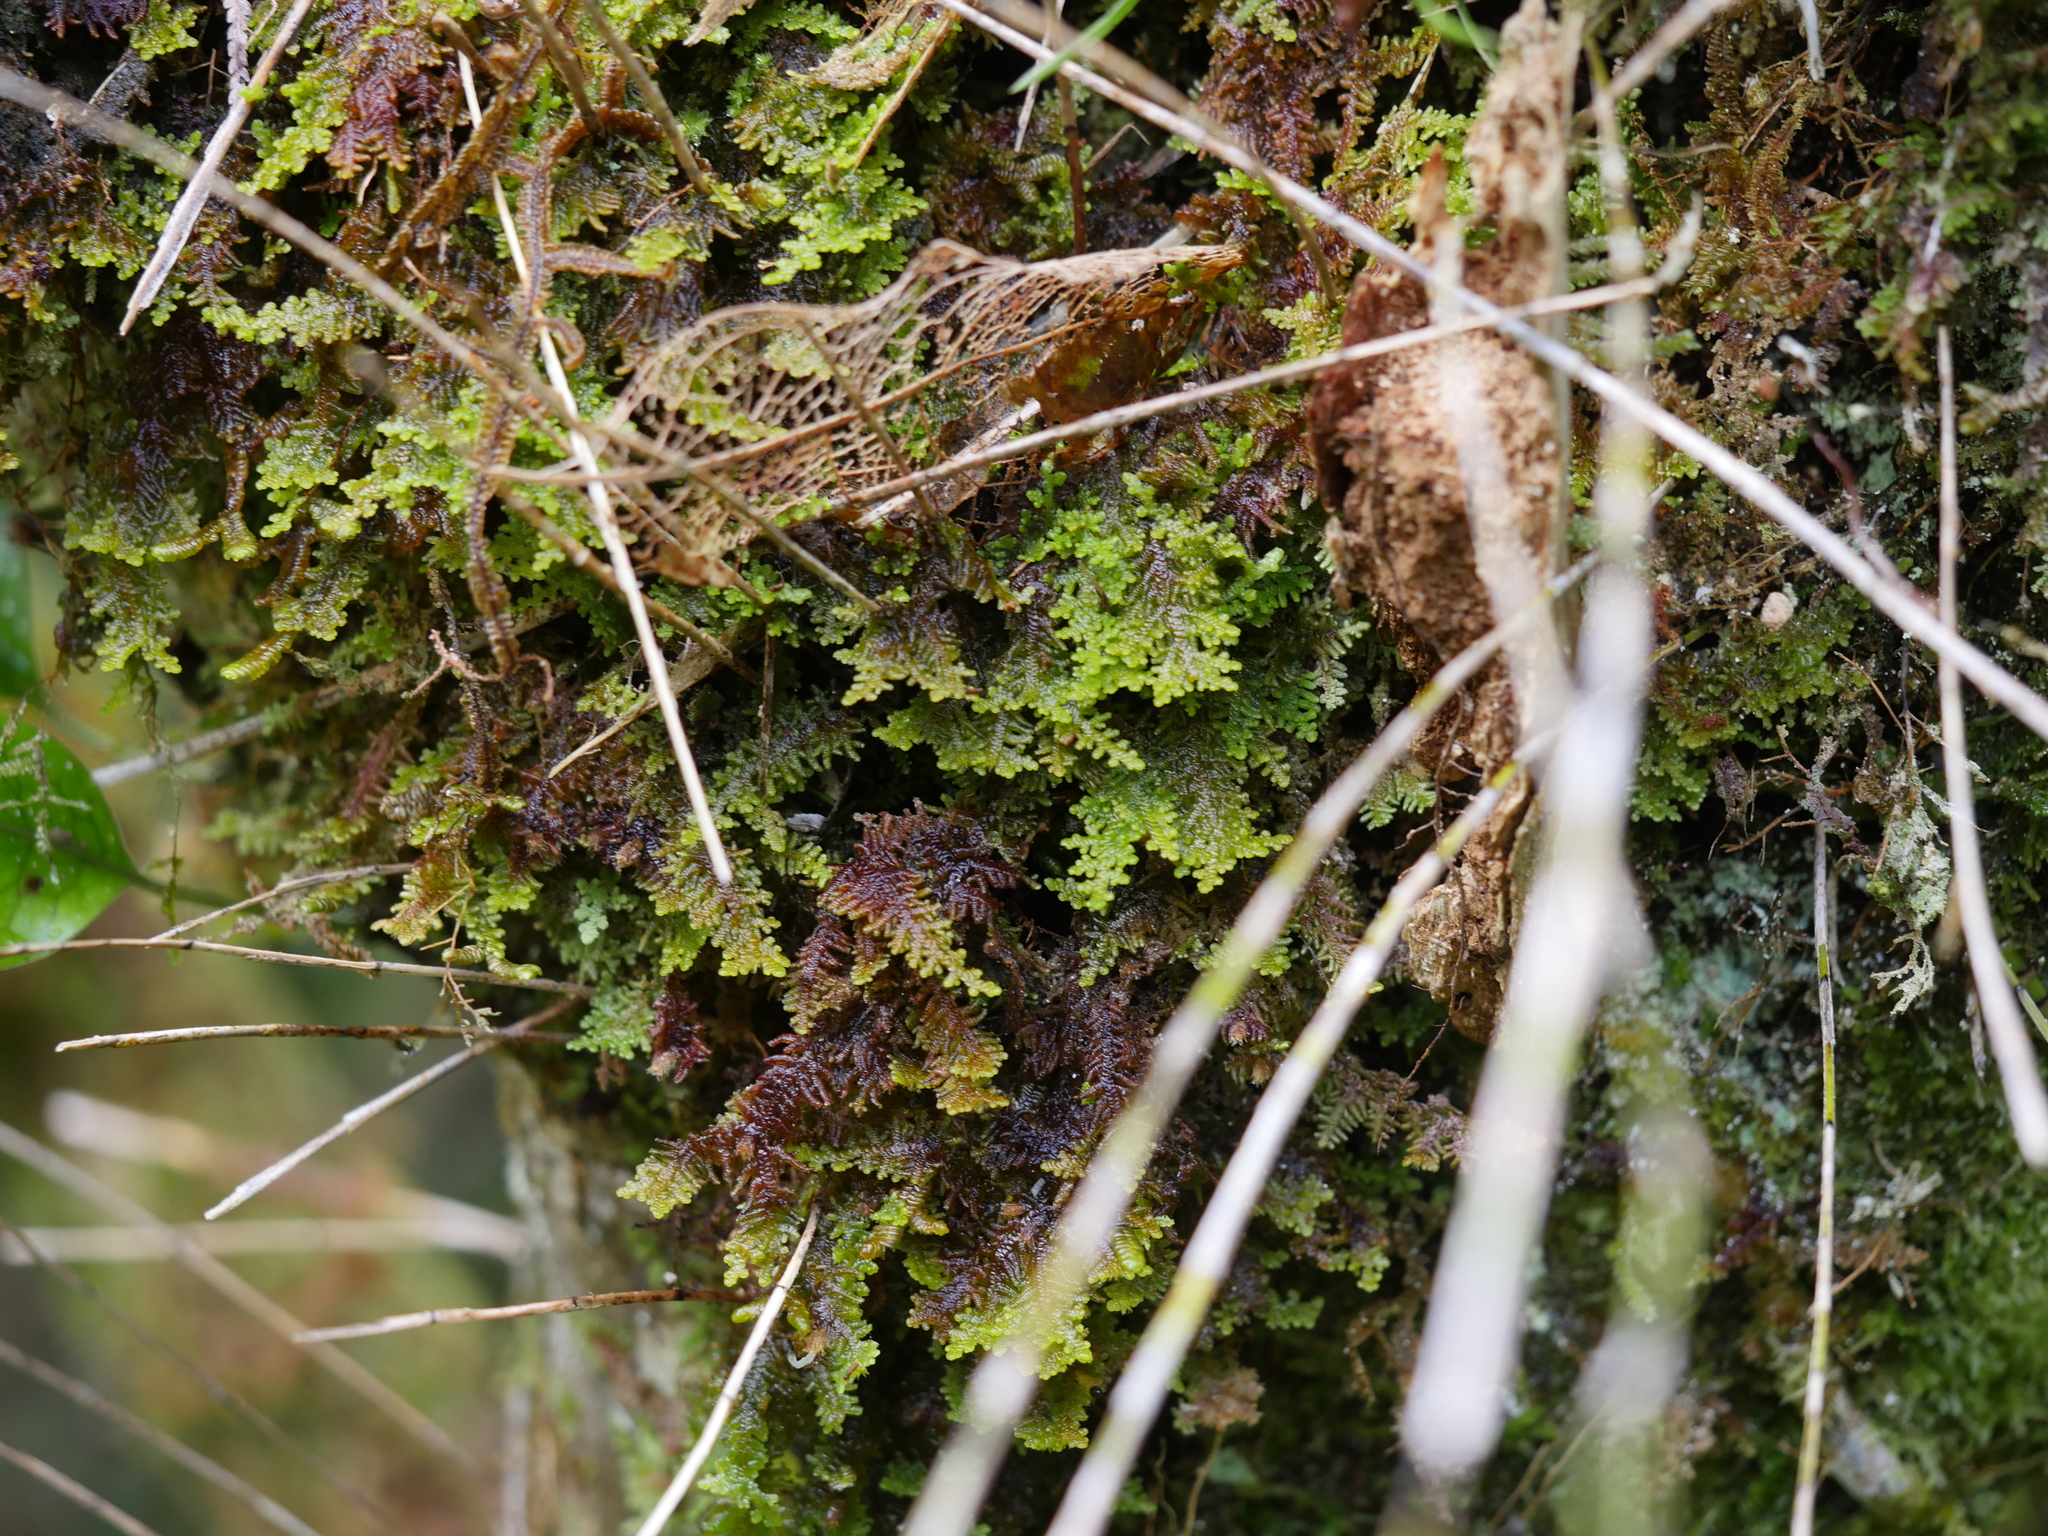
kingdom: Plantae
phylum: Marchantiophyta
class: Jungermanniopsida
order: Porellales
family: Lepidolaenaceae
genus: Lepidolaena
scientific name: Lepidolaena clavigera
